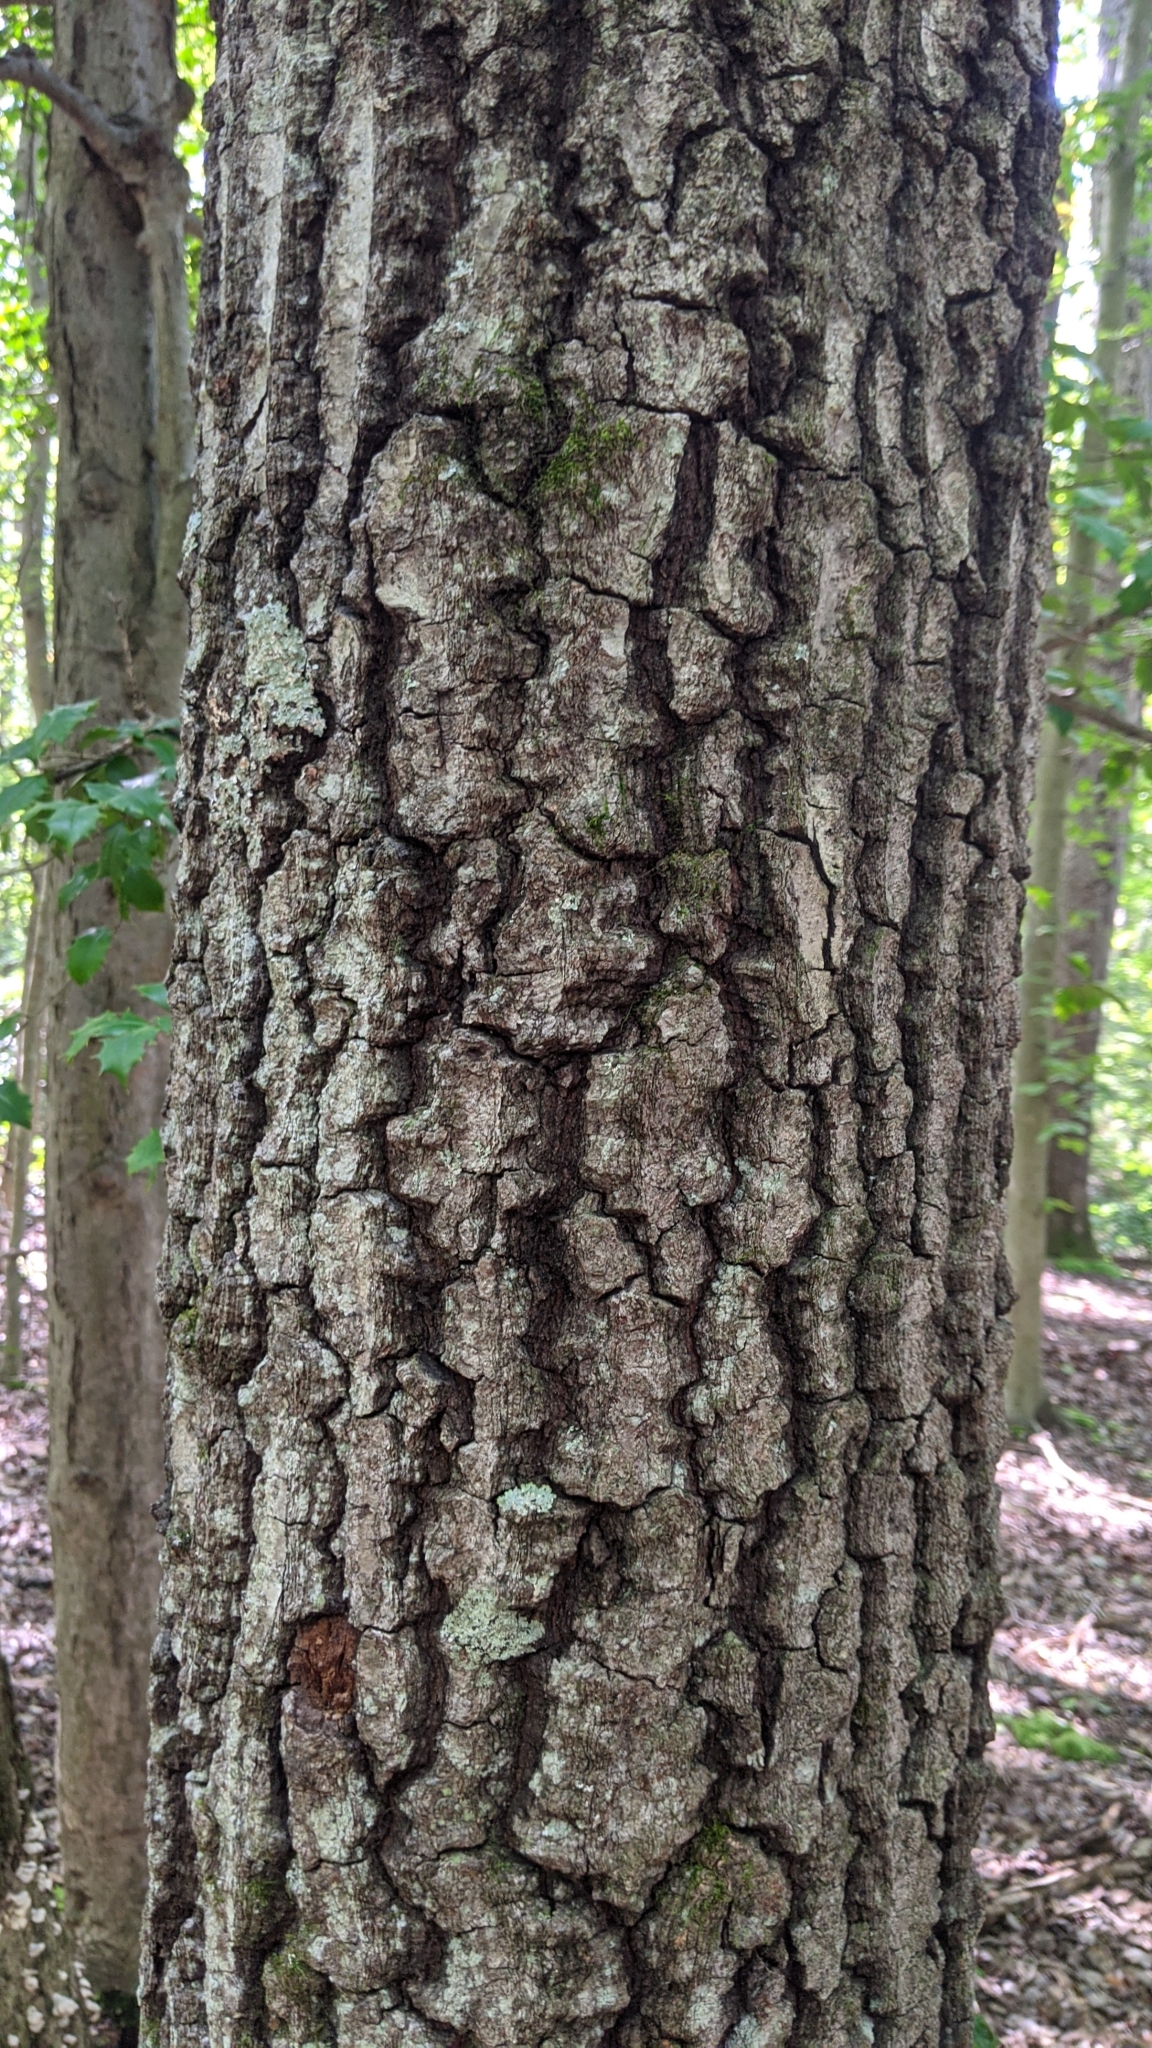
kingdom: Plantae
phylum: Tracheophyta
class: Magnoliopsida
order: Fagales
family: Fagaceae
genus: Quercus
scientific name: Quercus alba
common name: White oak
